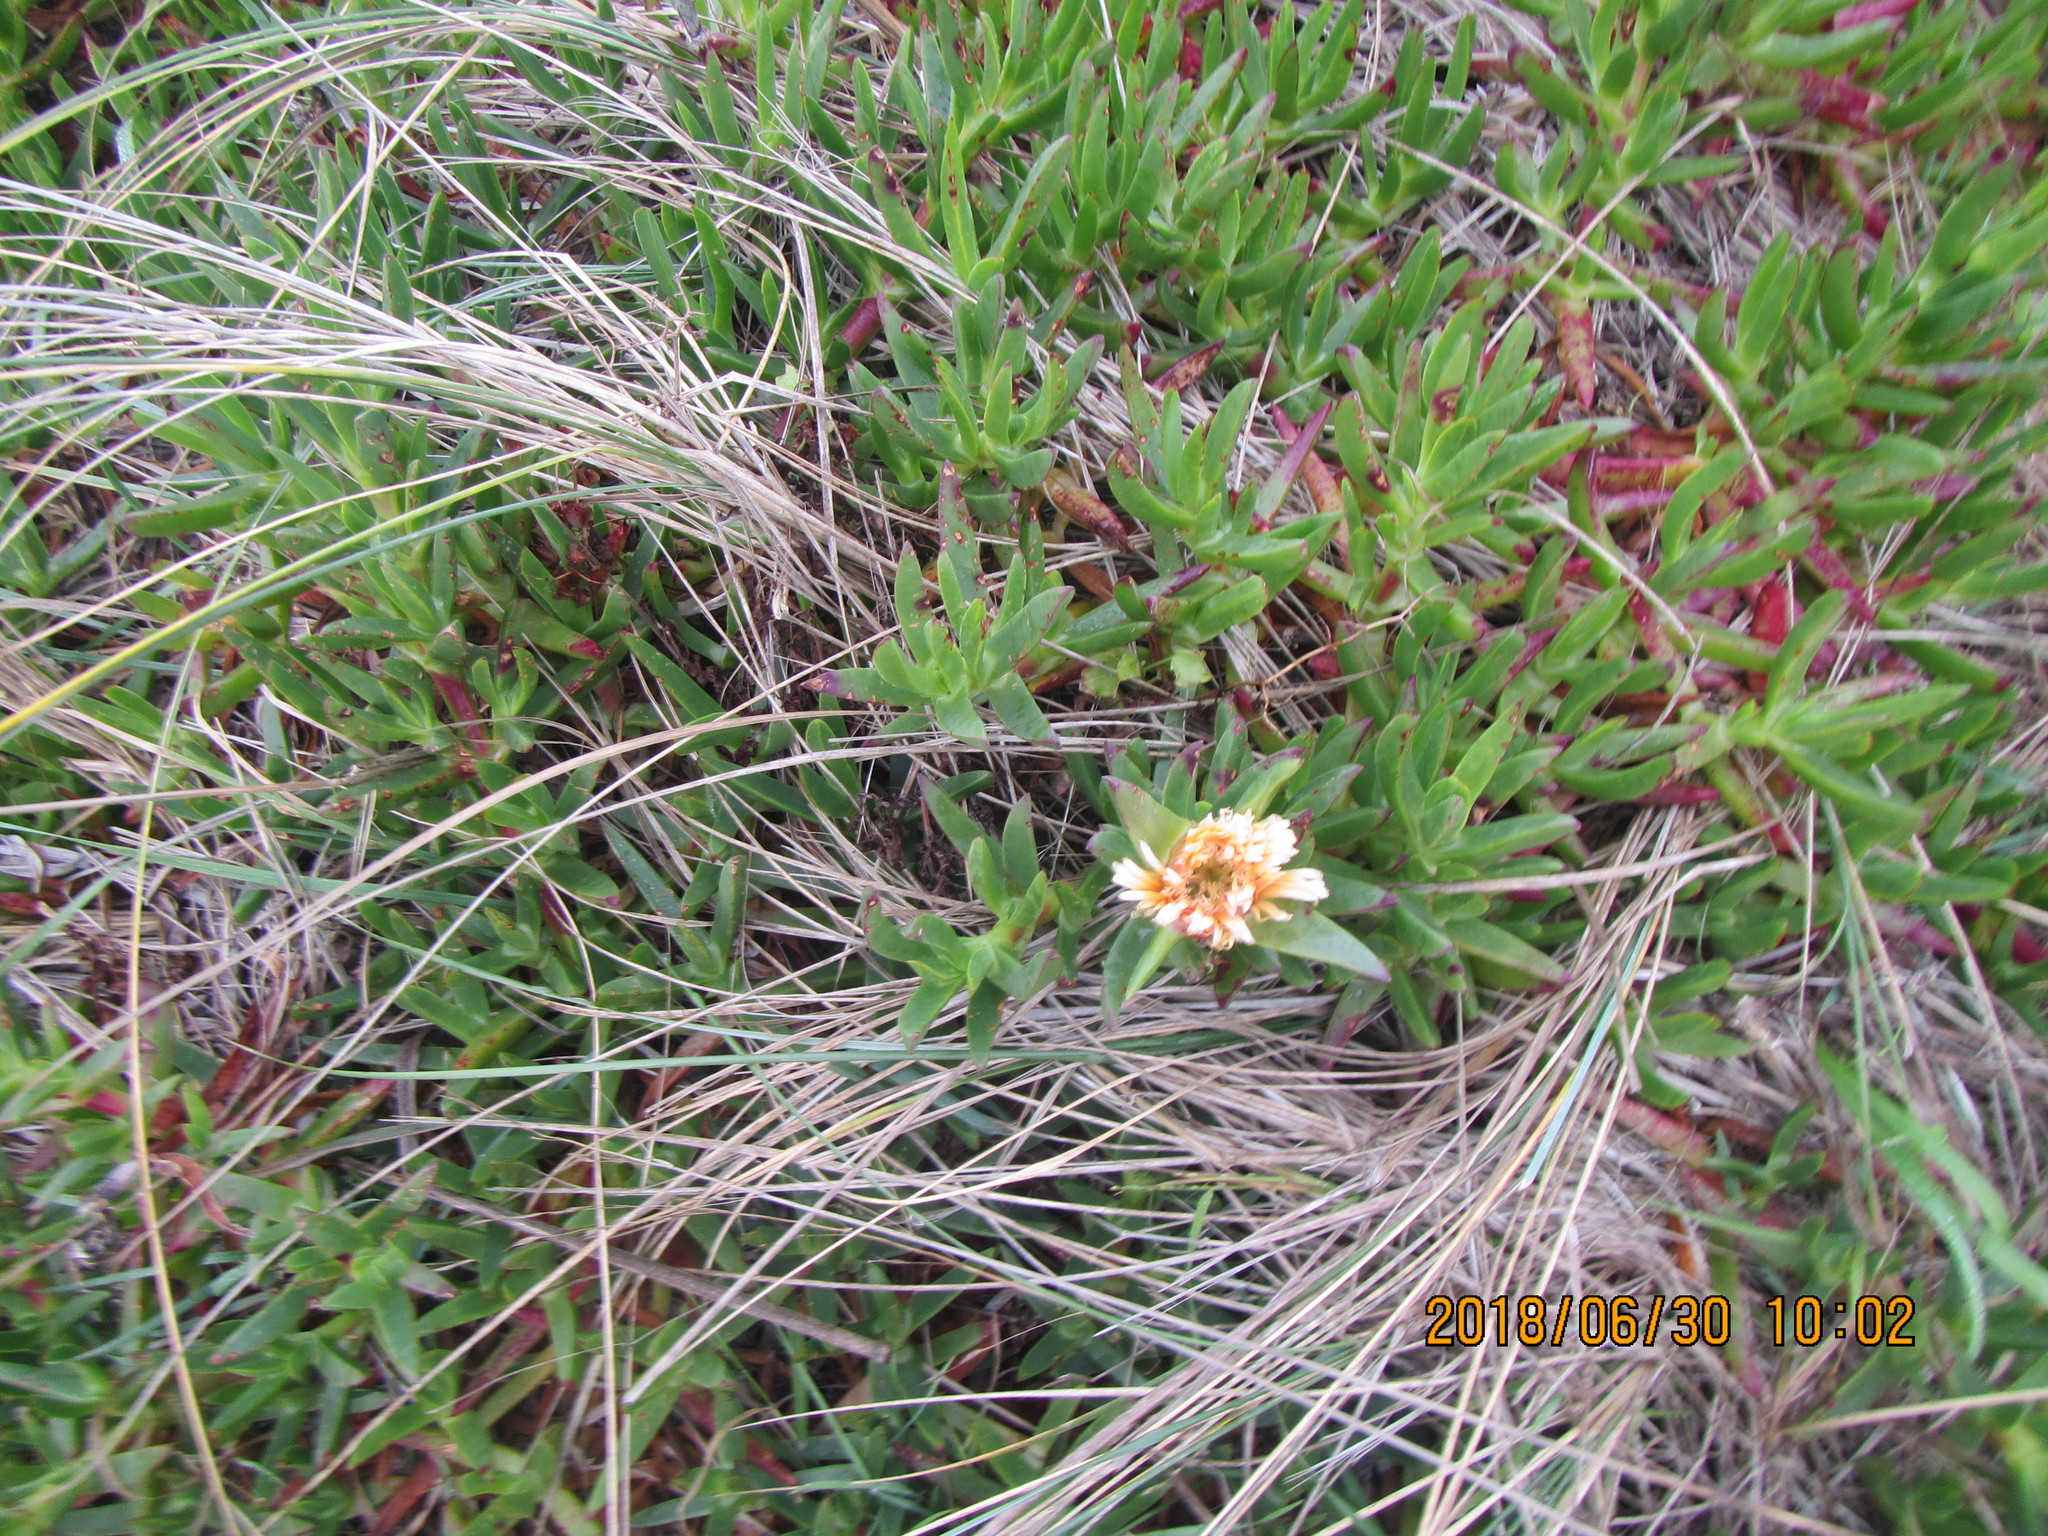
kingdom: Plantae
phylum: Tracheophyta
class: Magnoliopsida
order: Caryophyllales
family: Aizoaceae
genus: Carpobrotus
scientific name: Carpobrotus edulis
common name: Hottentot-fig
